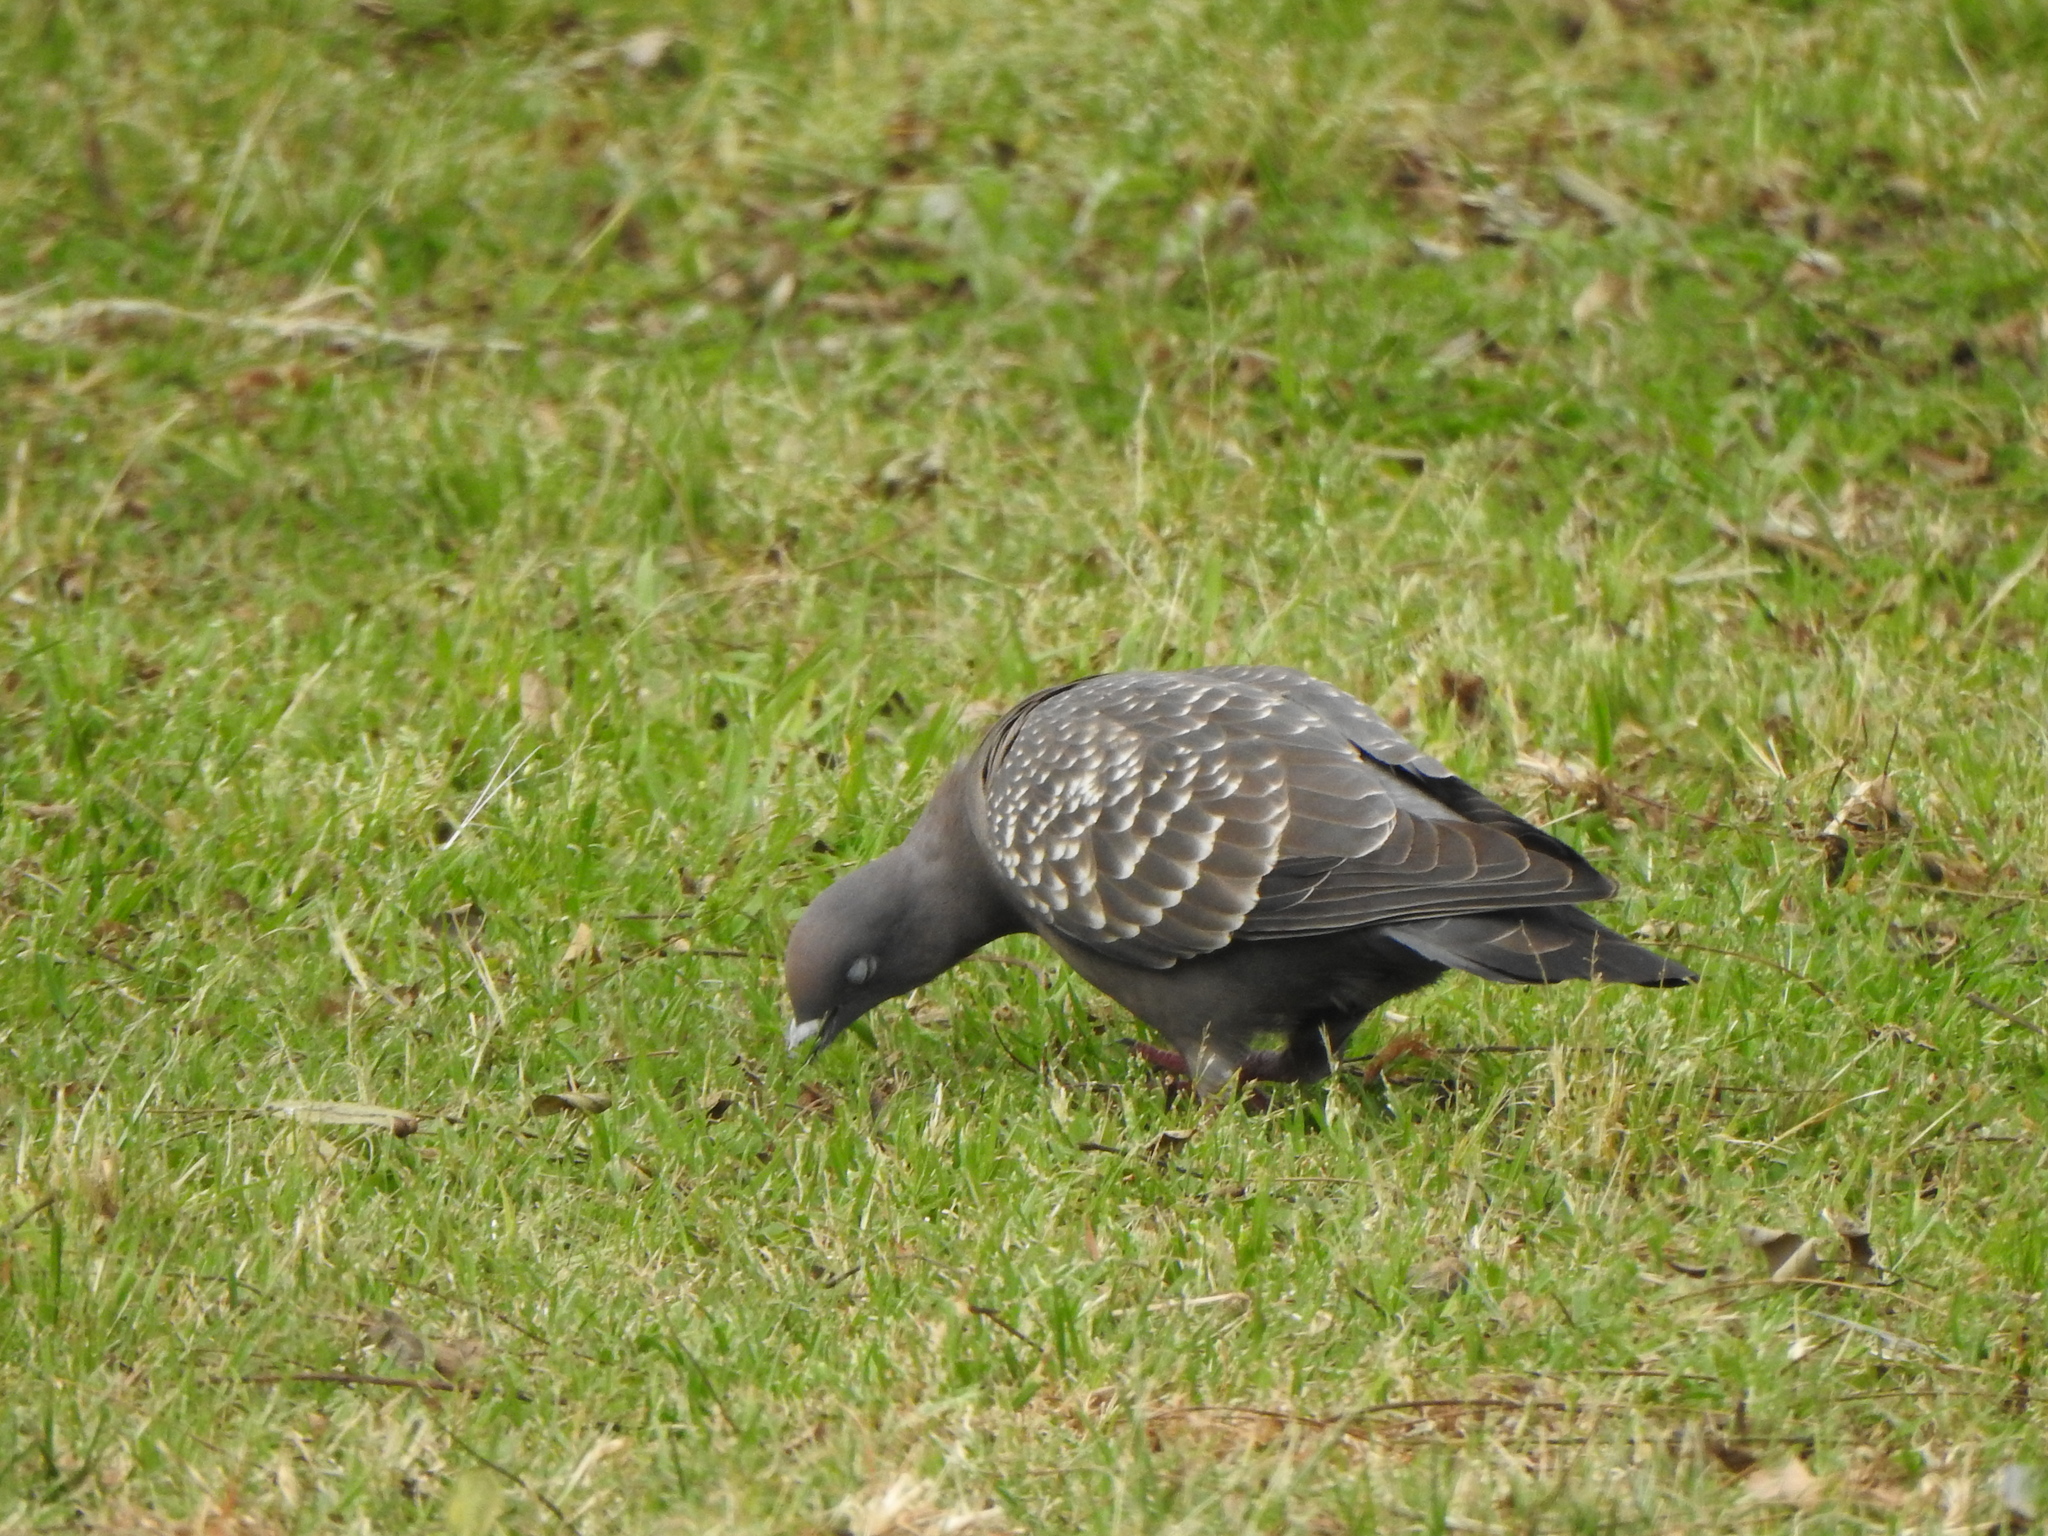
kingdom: Animalia
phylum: Chordata
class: Aves
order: Columbiformes
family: Columbidae
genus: Patagioenas
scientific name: Patagioenas maculosa
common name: Spot-winged pigeon
